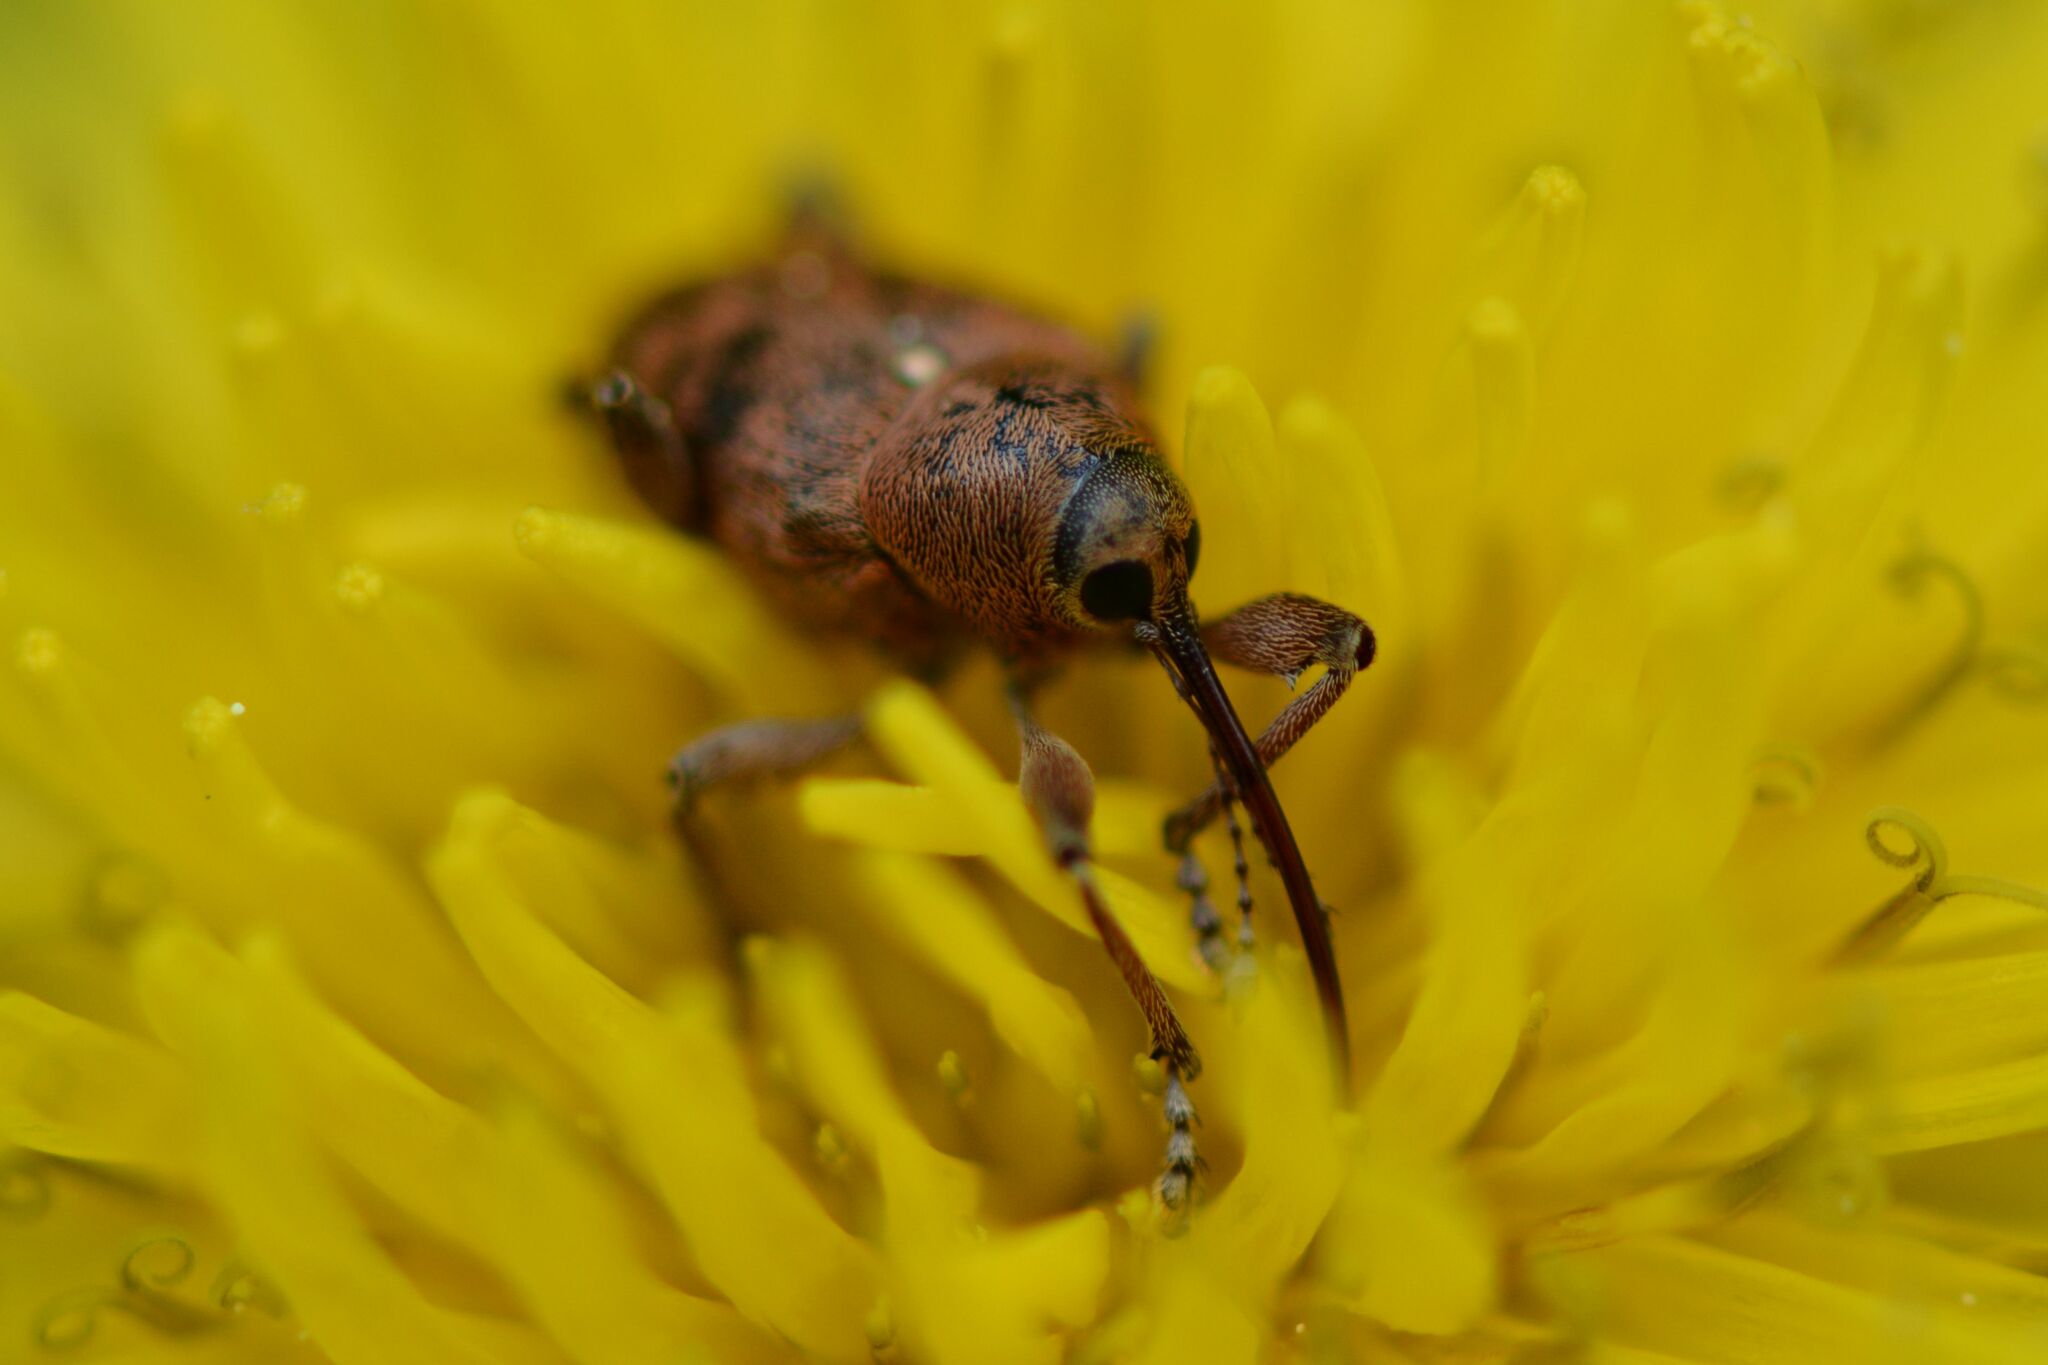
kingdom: Animalia
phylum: Arthropoda
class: Insecta
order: Coleoptera
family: Curculionidae
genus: Curculio
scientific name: Curculio glandium
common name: Acorn weevil
